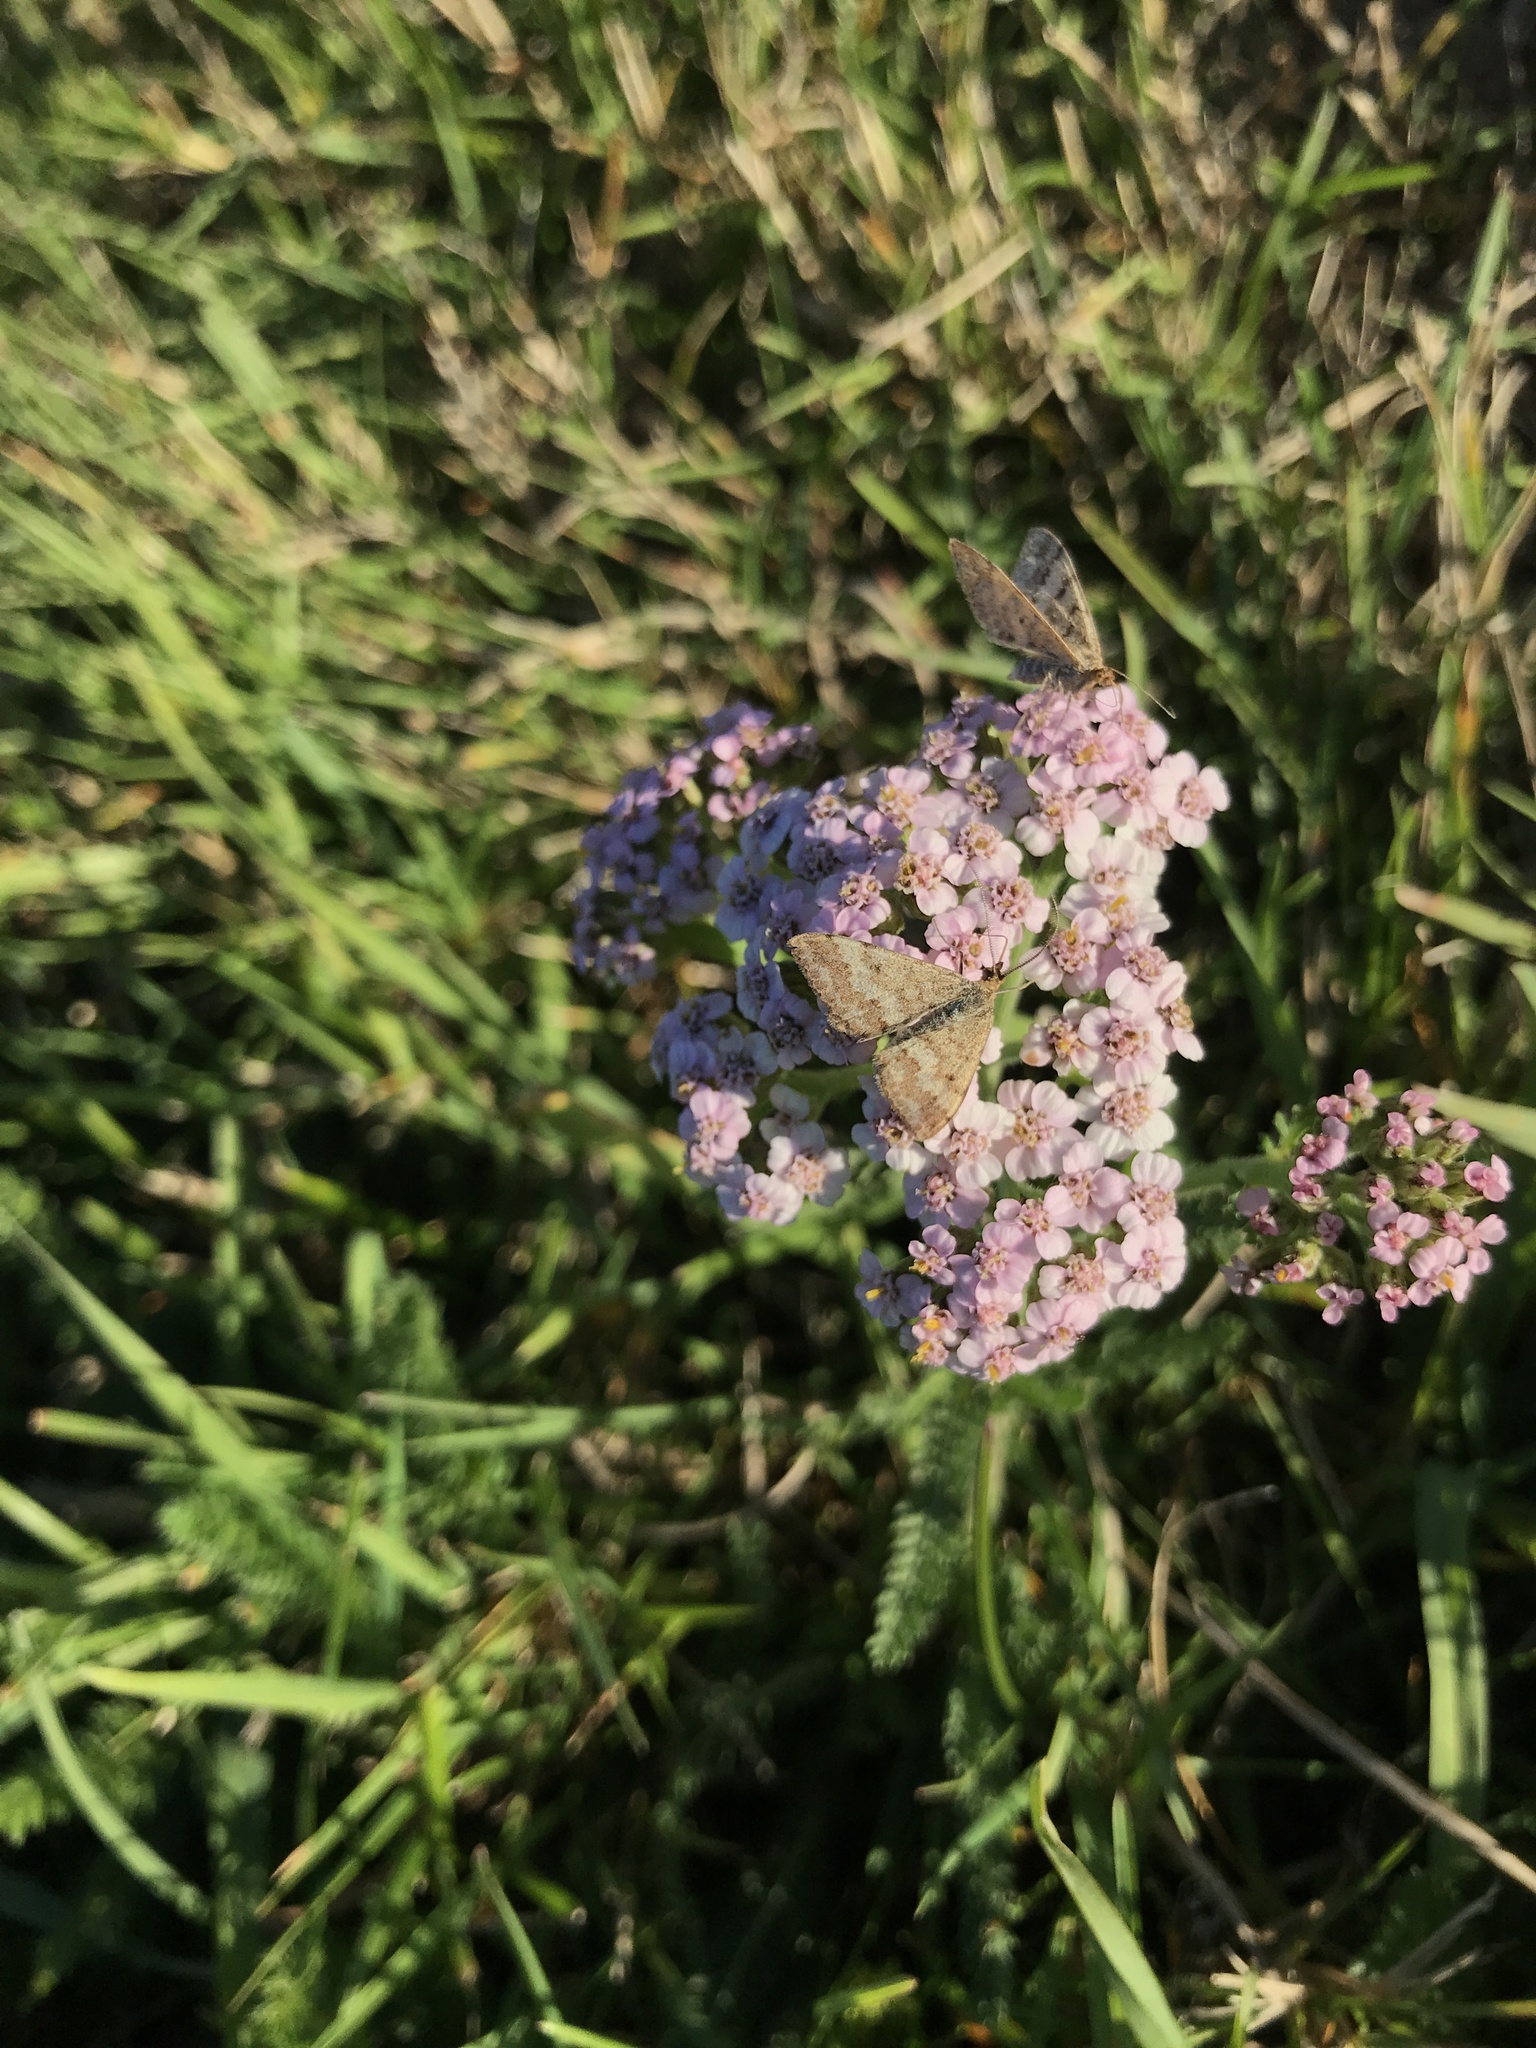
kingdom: Animalia
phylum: Arthropoda
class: Insecta
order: Lepidoptera
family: Geometridae
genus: Scopula
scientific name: Scopula rubraria
